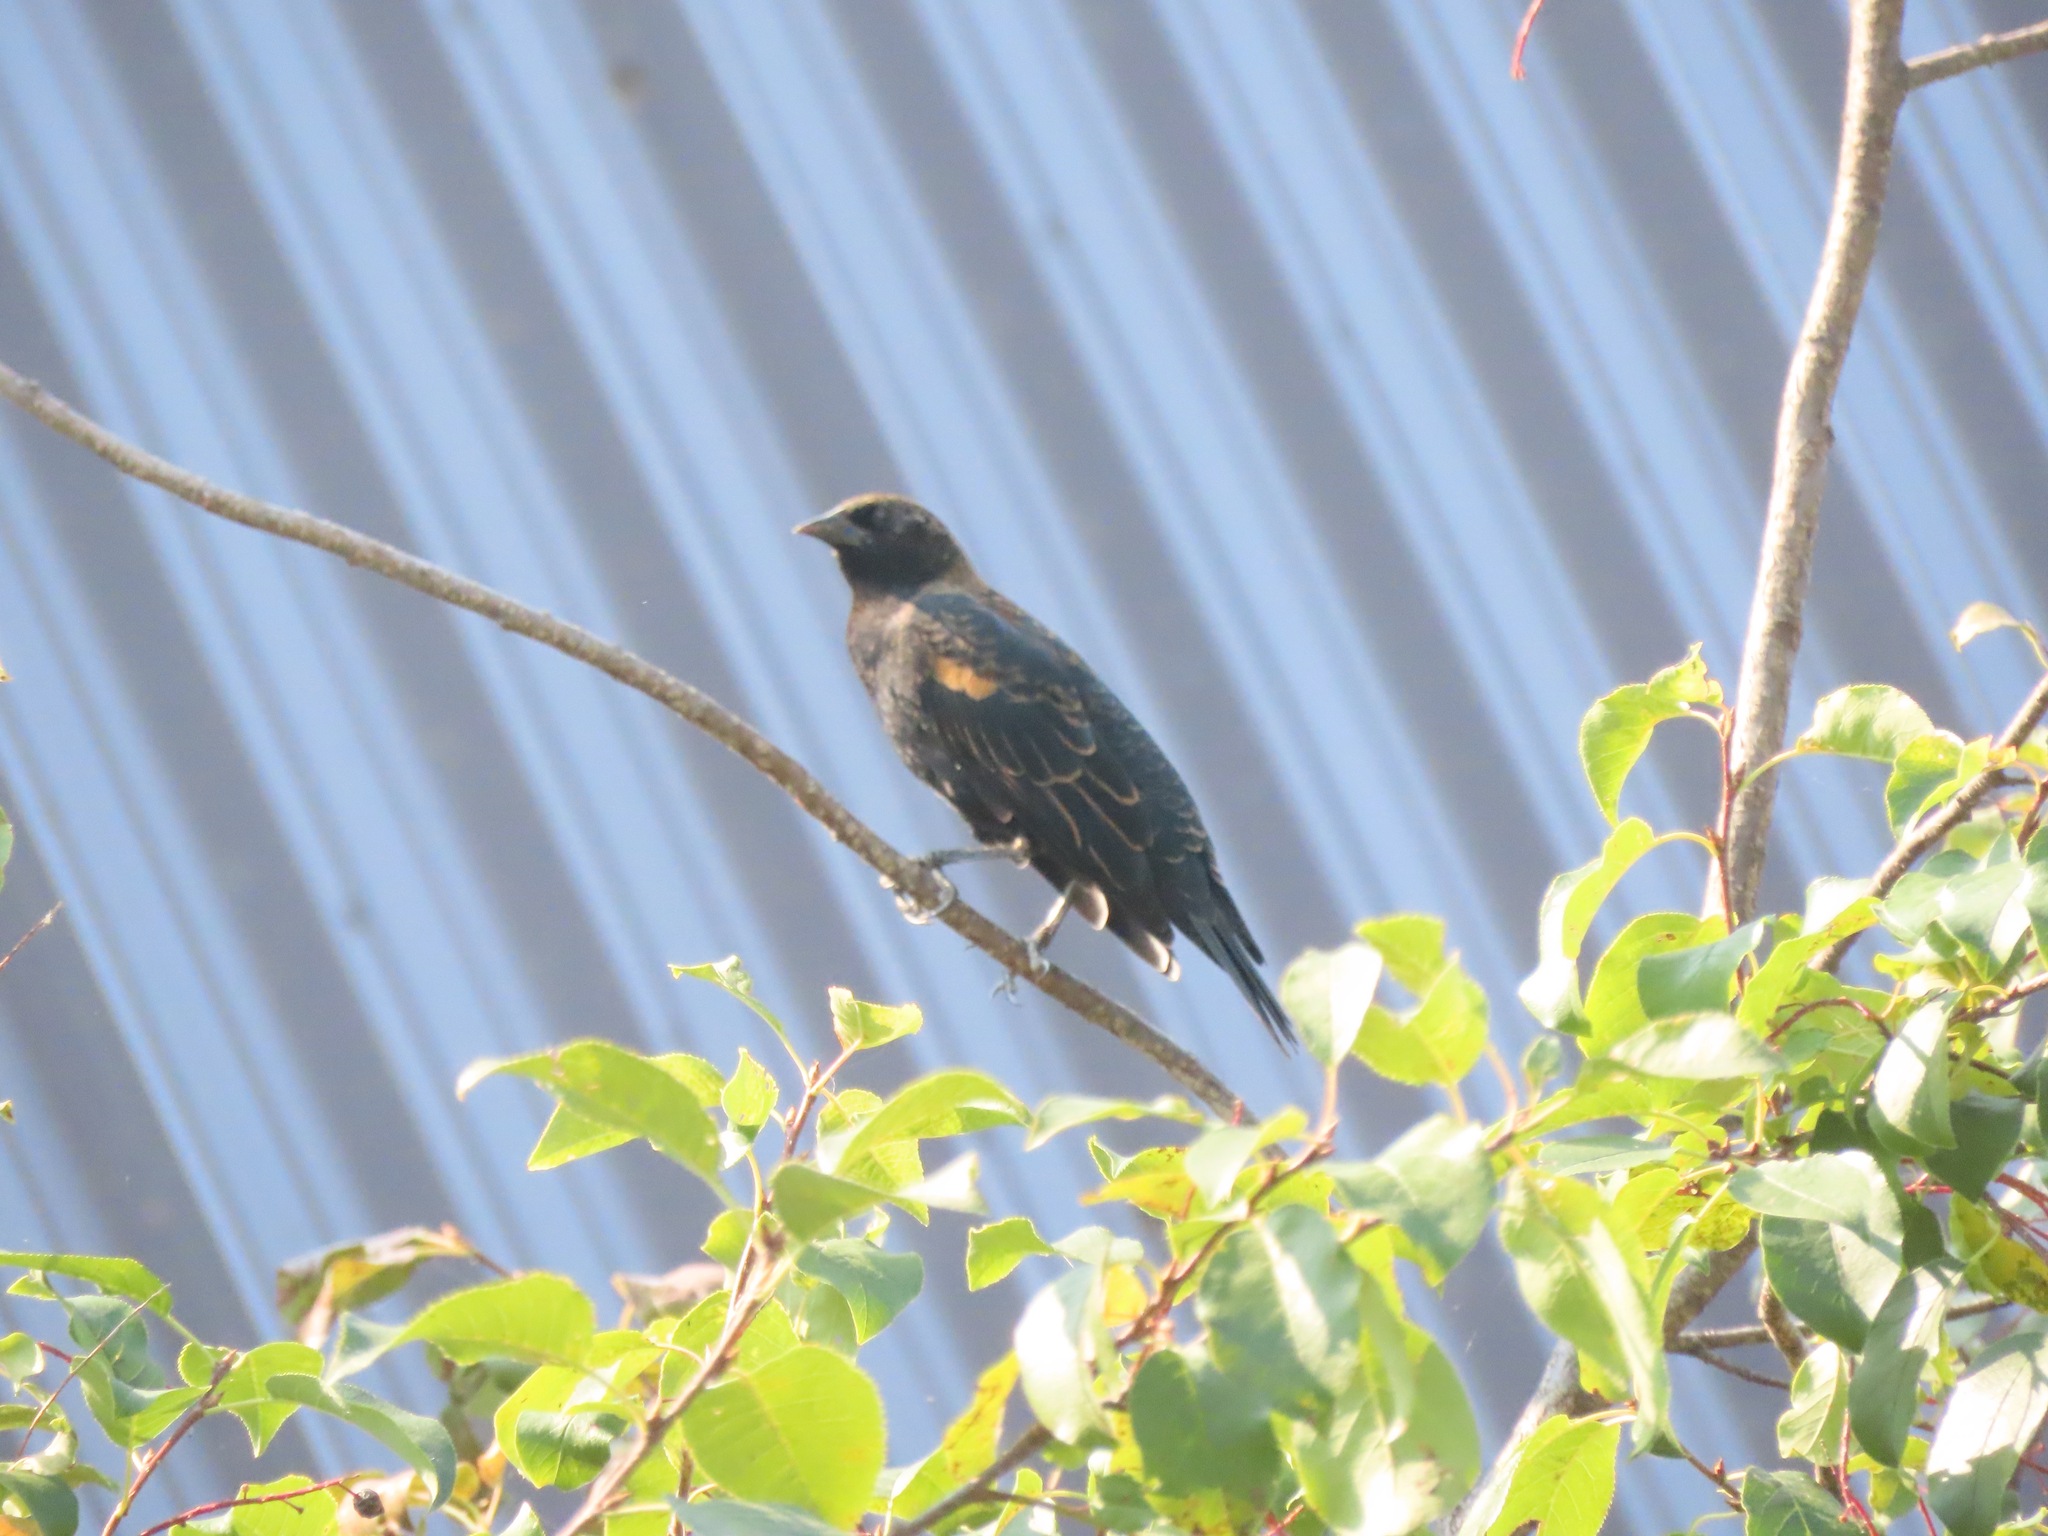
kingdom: Animalia
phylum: Chordata
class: Aves
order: Passeriformes
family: Icteridae
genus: Agelaius
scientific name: Agelaius phoeniceus
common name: Red-winged blackbird
